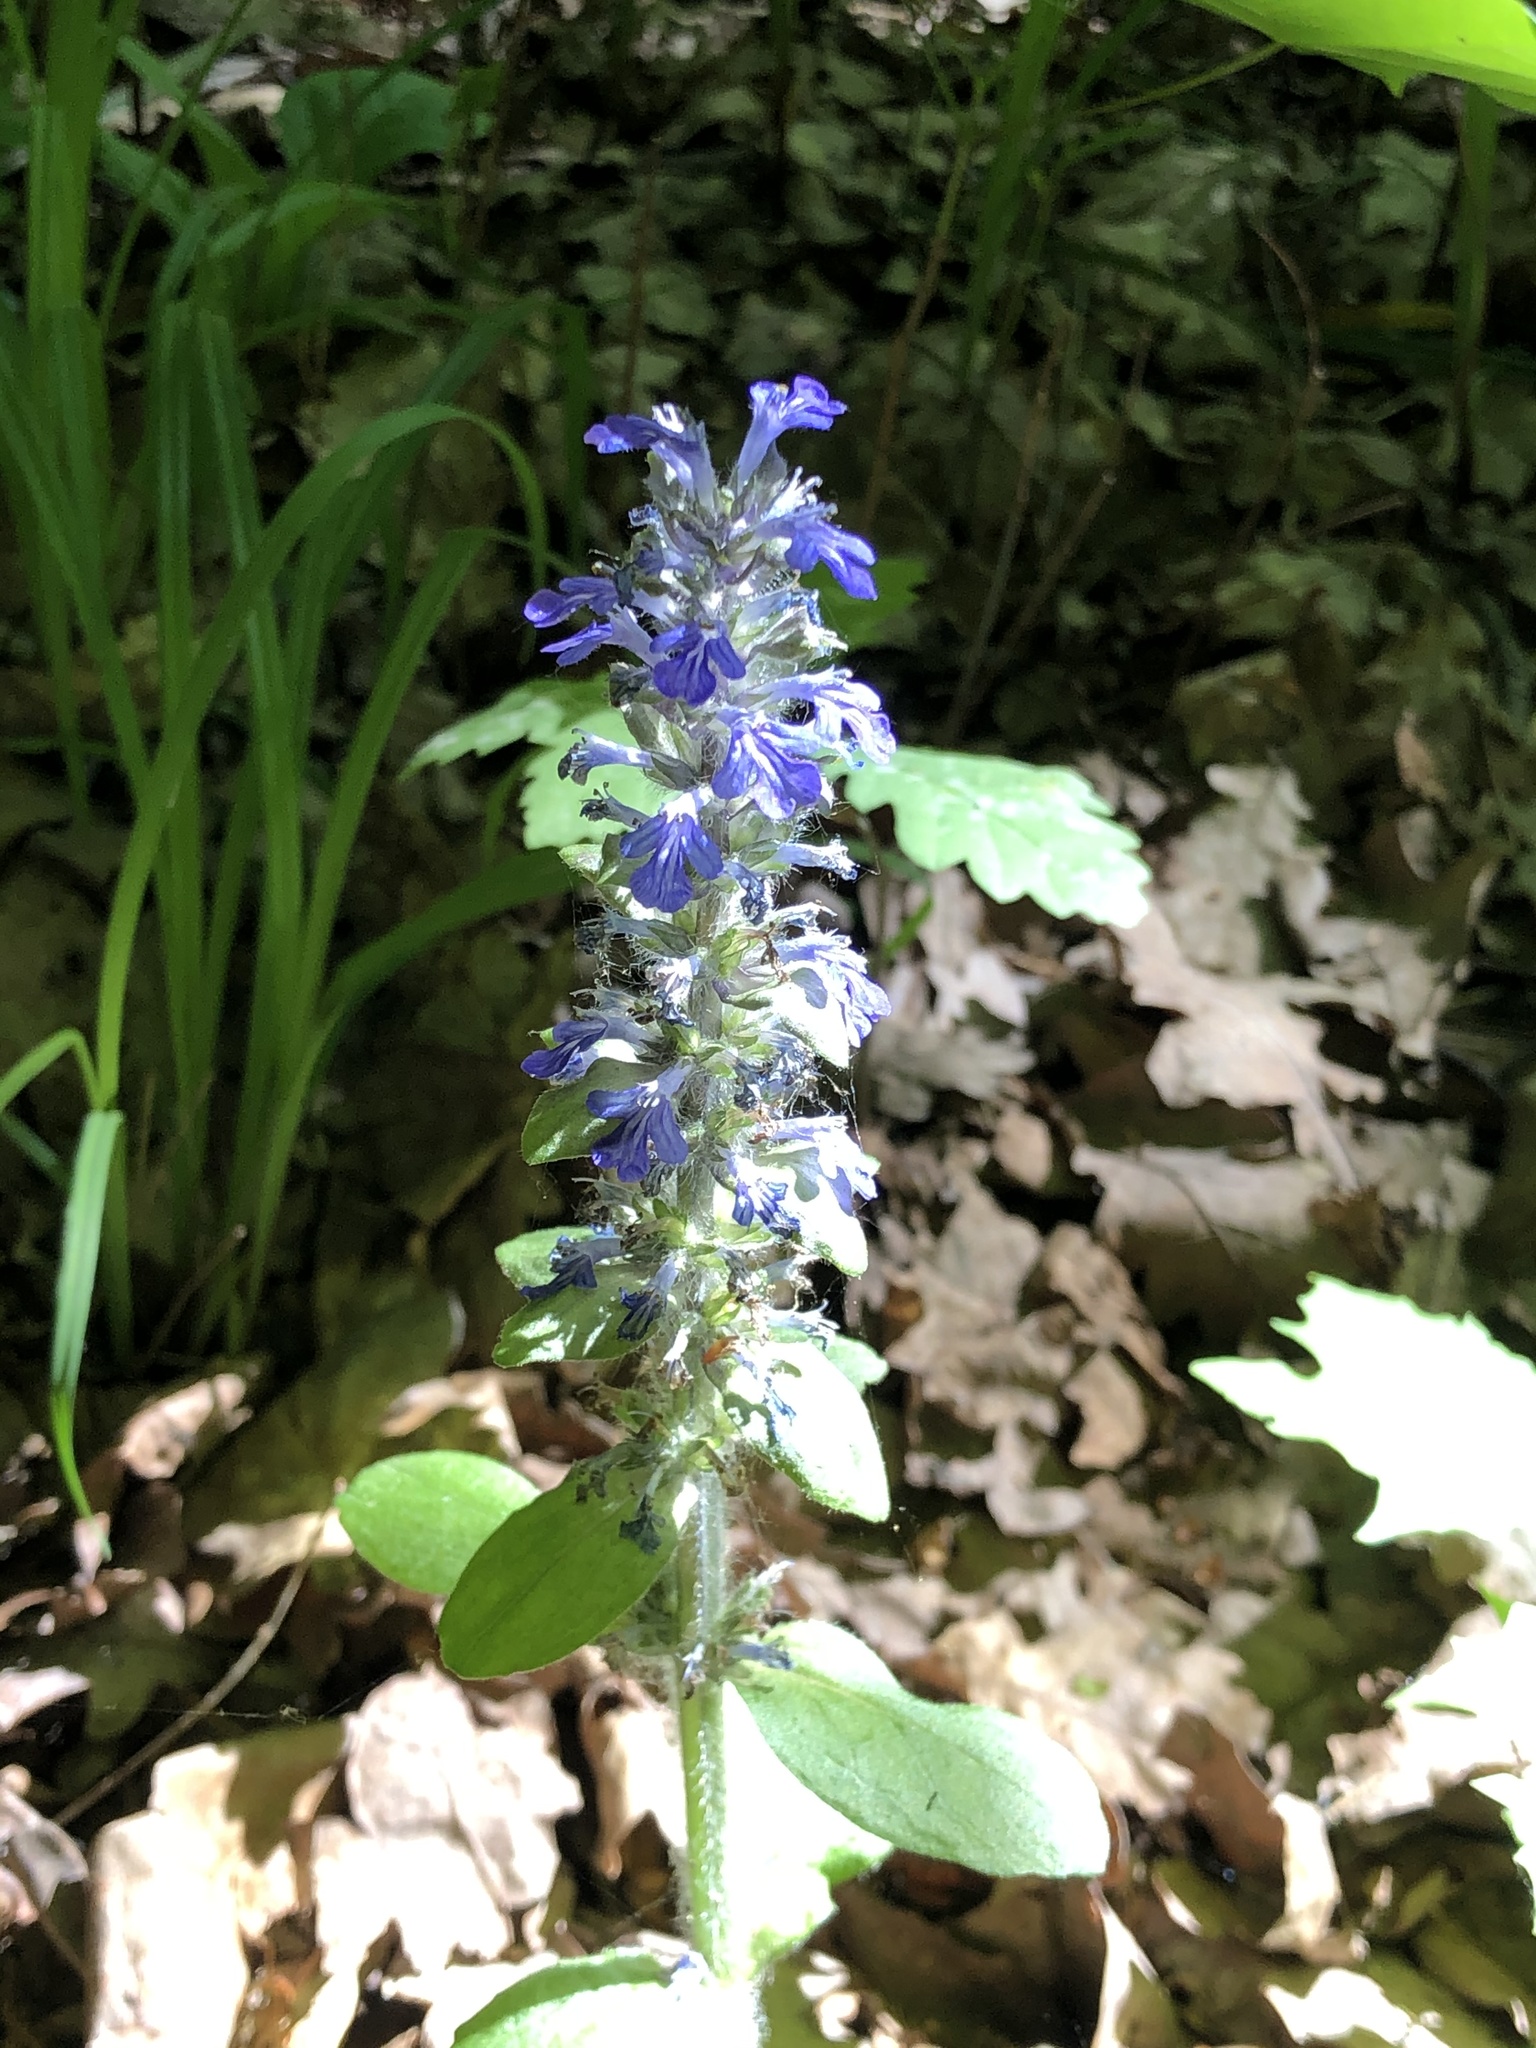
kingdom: Plantae
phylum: Tracheophyta
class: Magnoliopsida
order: Lamiales
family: Lamiaceae
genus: Ajuga
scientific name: Ajuga reptans
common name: Bugle
